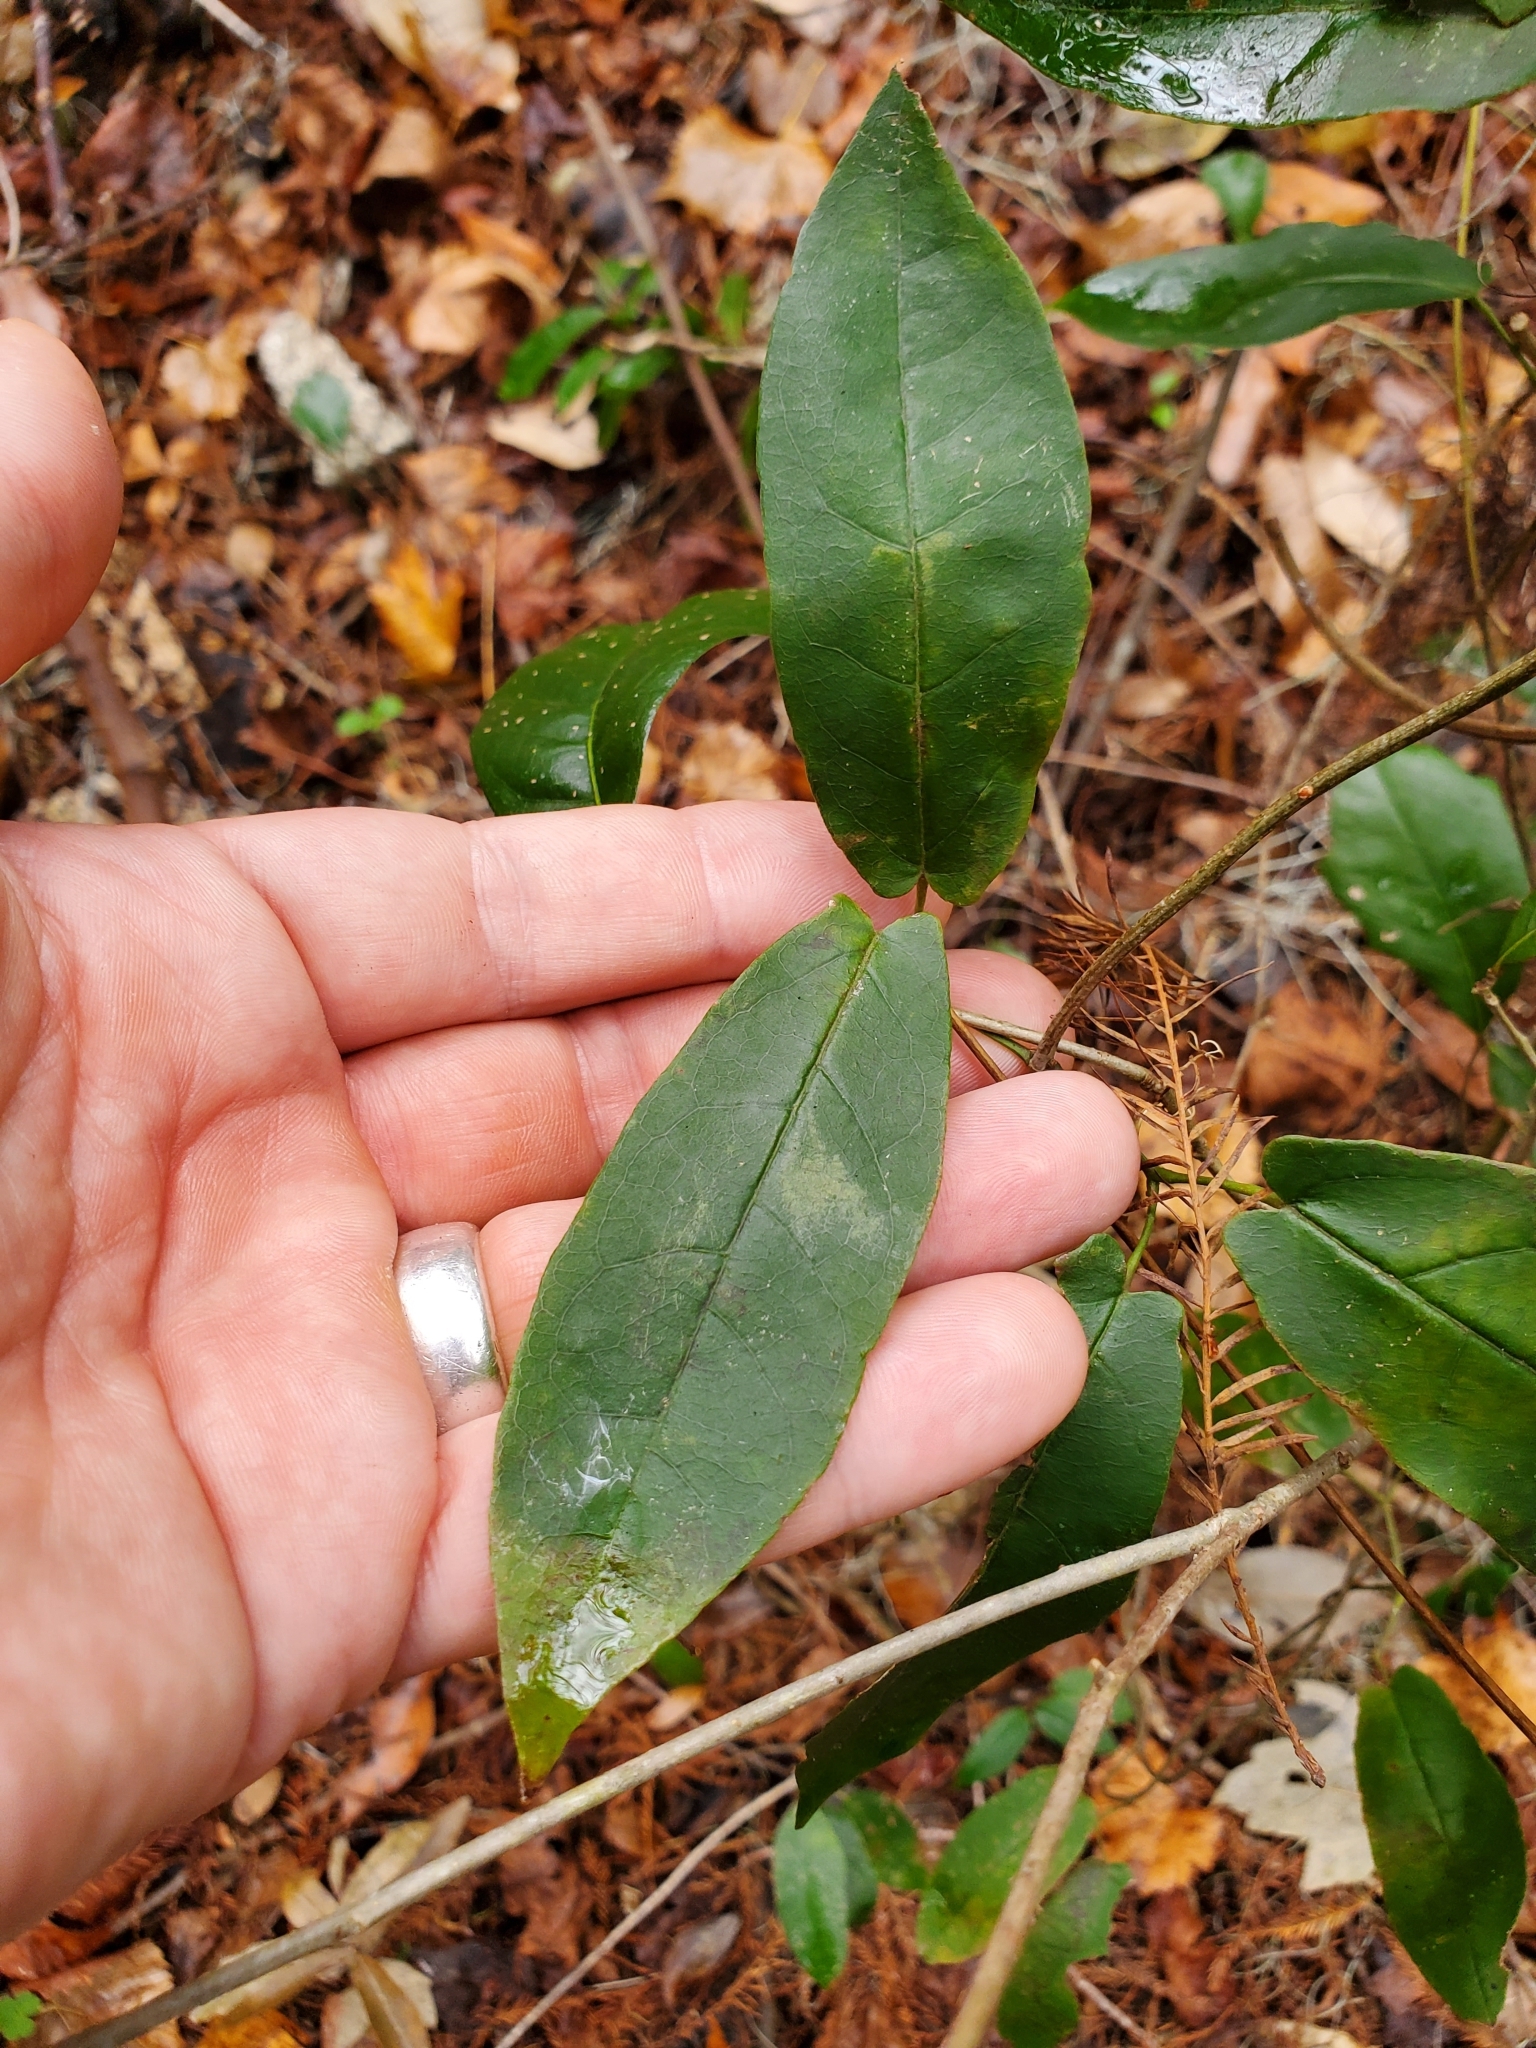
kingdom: Plantae
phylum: Tracheophyta
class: Magnoliopsida
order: Lamiales
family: Bignoniaceae
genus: Bignonia
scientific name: Bignonia capreolata
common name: Crossvine
